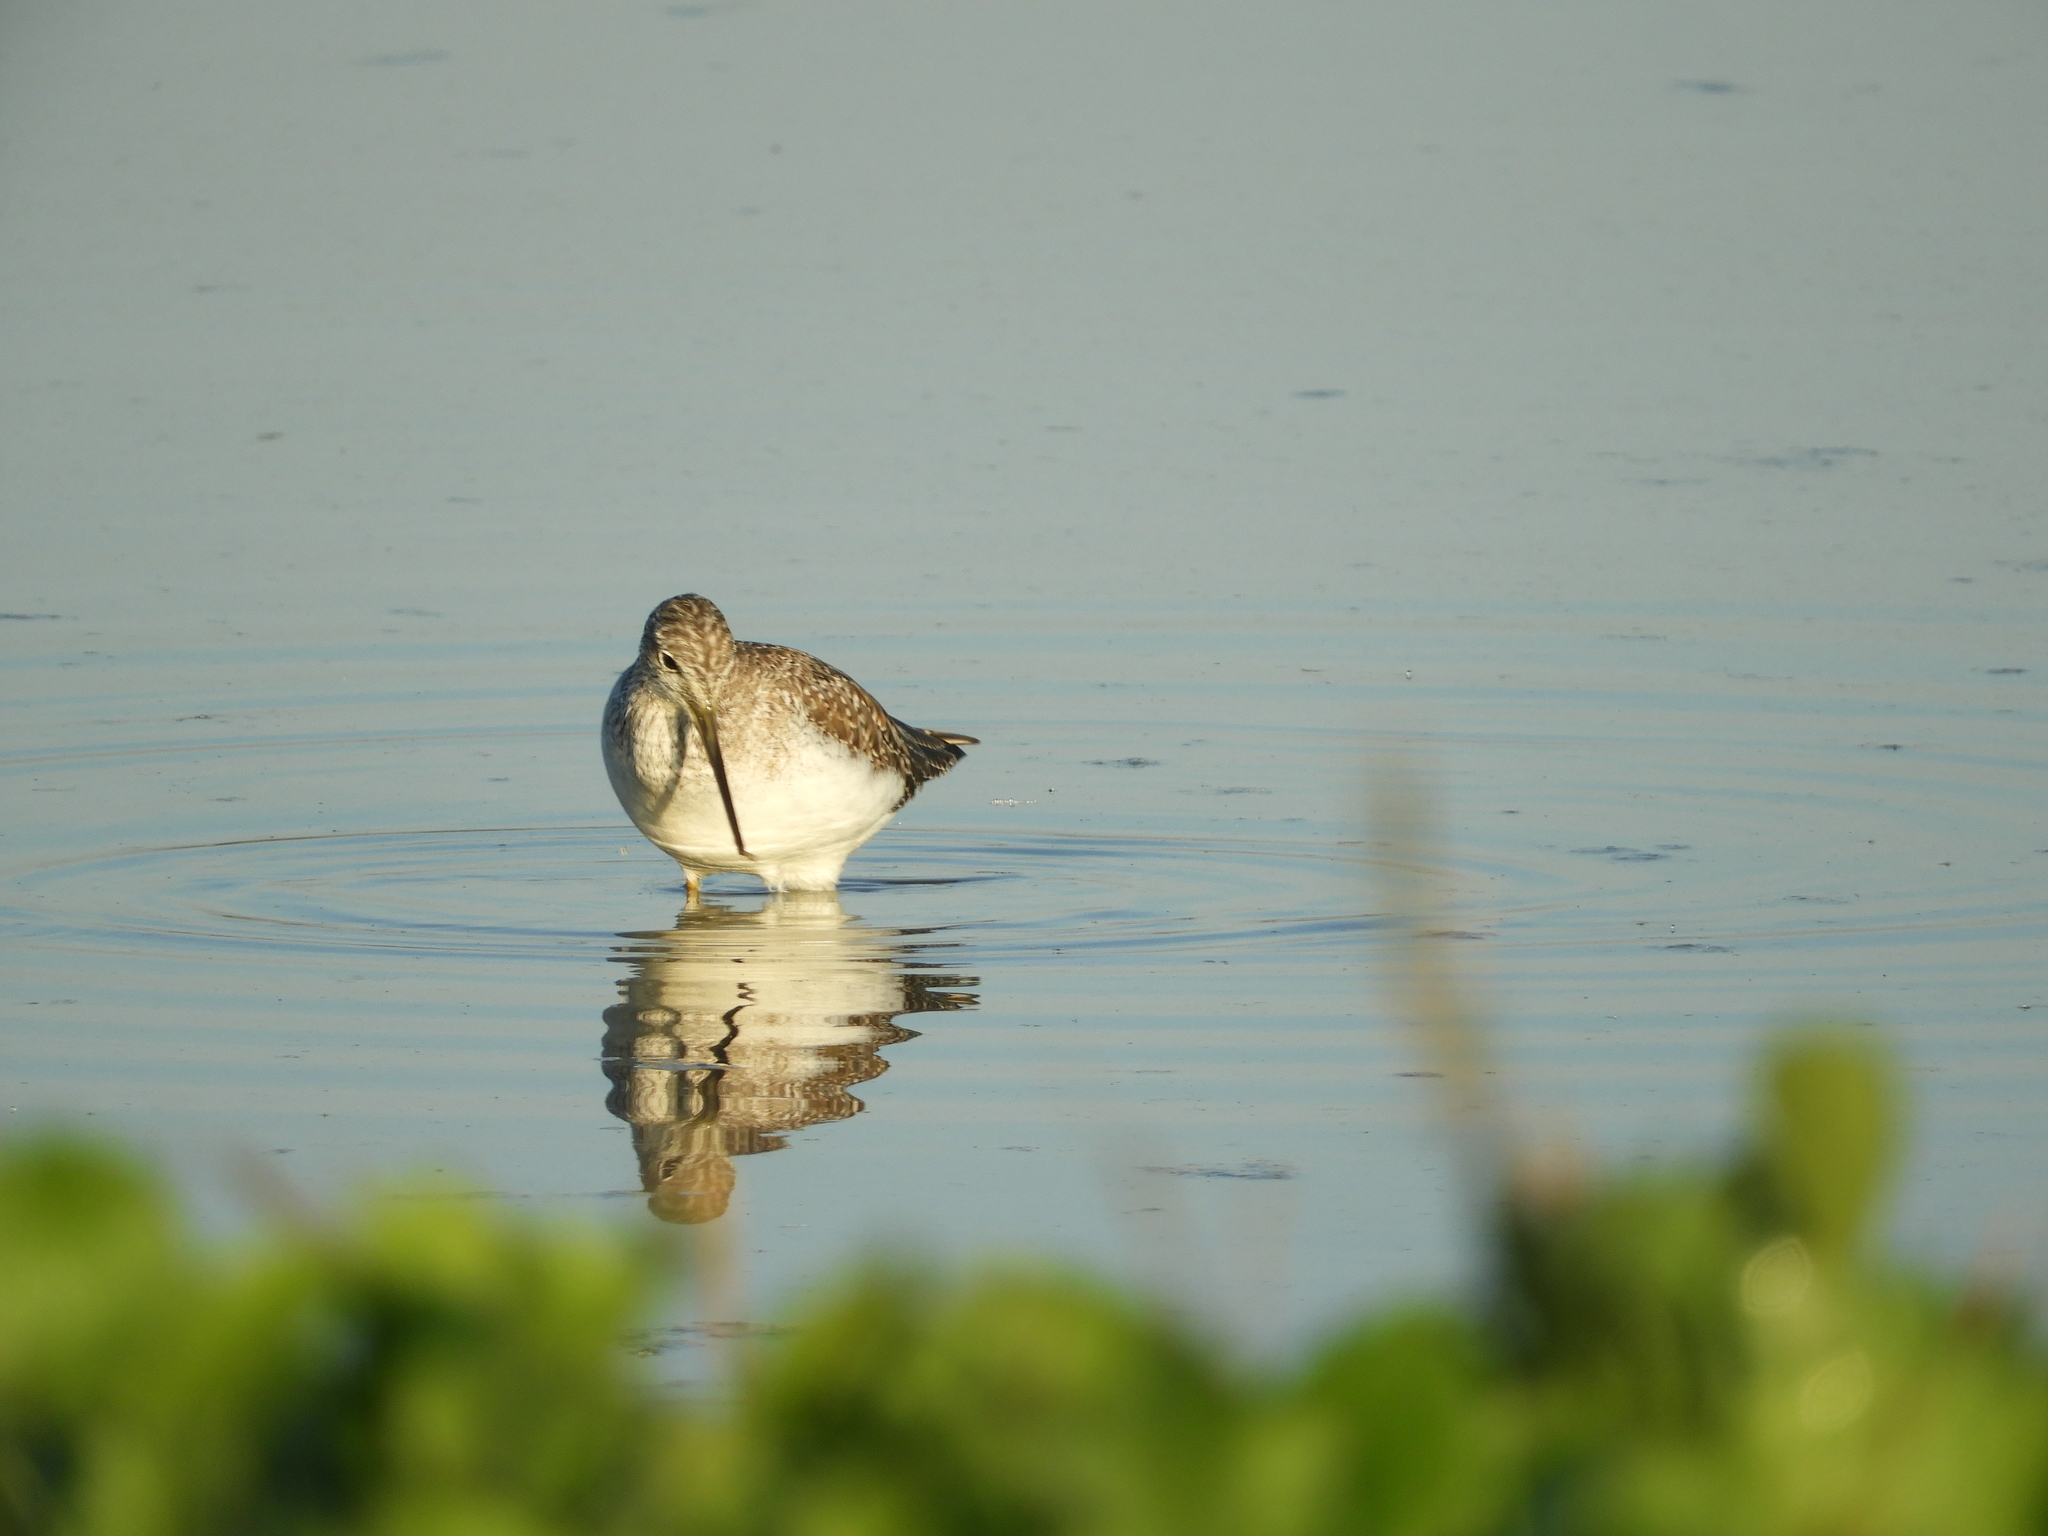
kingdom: Animalia
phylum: Chordata
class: Aves
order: Charadriiformes
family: Scolopacidae
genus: Tringa
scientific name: Tringa melanoleuca
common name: Greater yellowlegs
